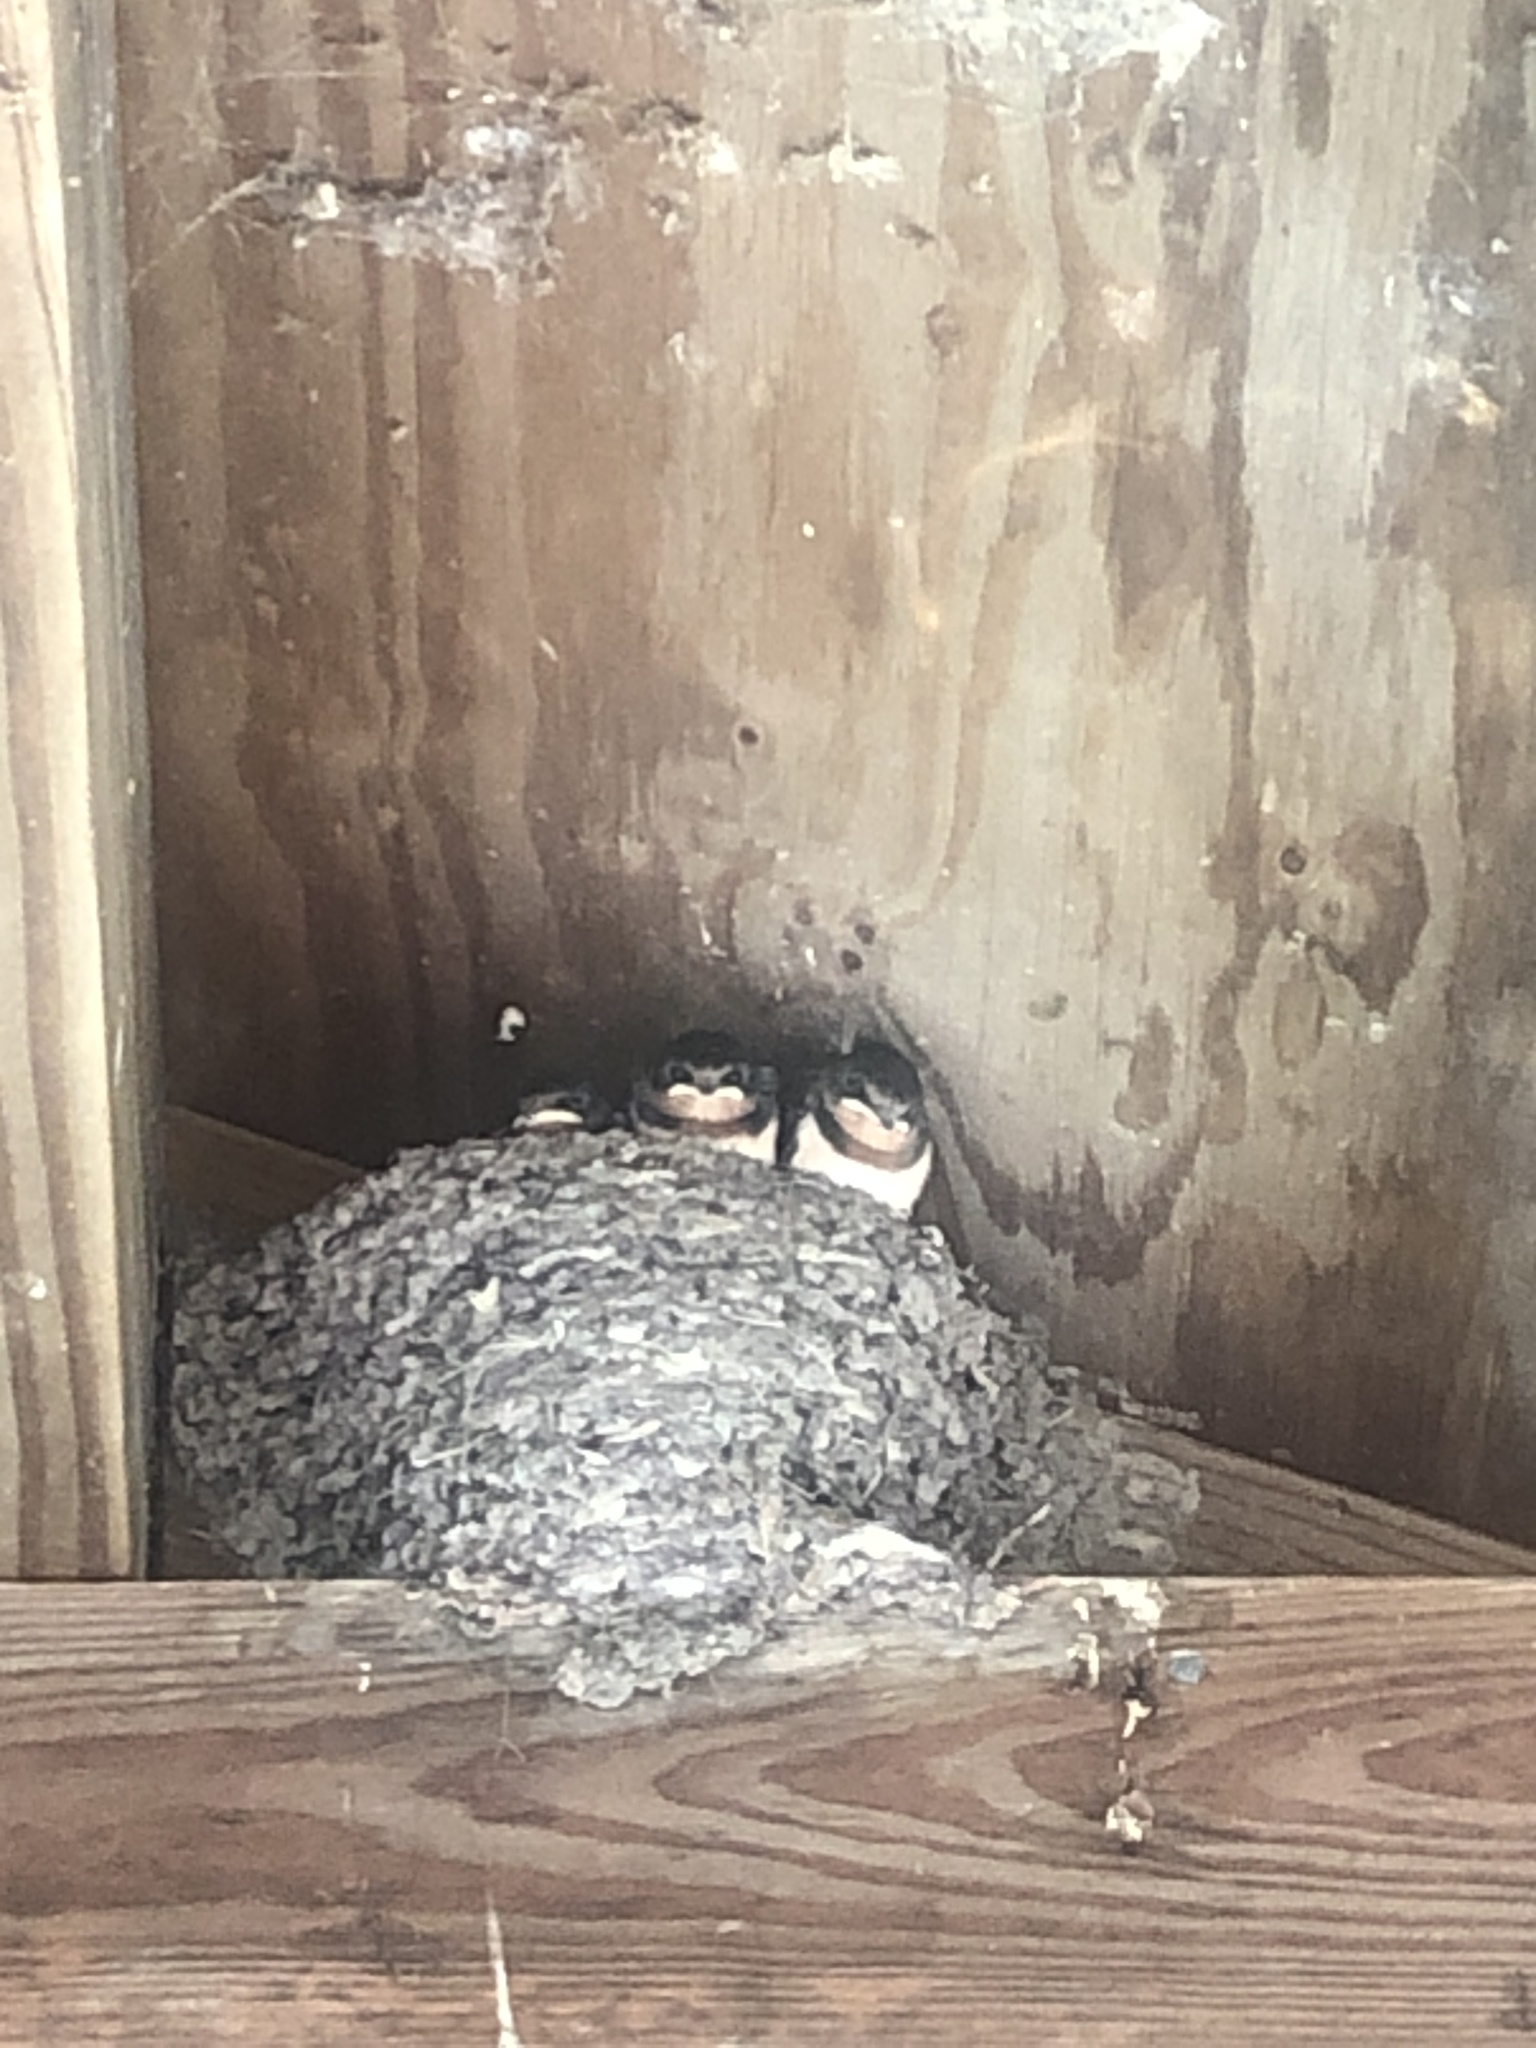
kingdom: Animalia
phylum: Chordata
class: Aves
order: Passeriformes
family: Hirundinidae
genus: Hirundo
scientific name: Hirundo rustica
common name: Barn swallow
